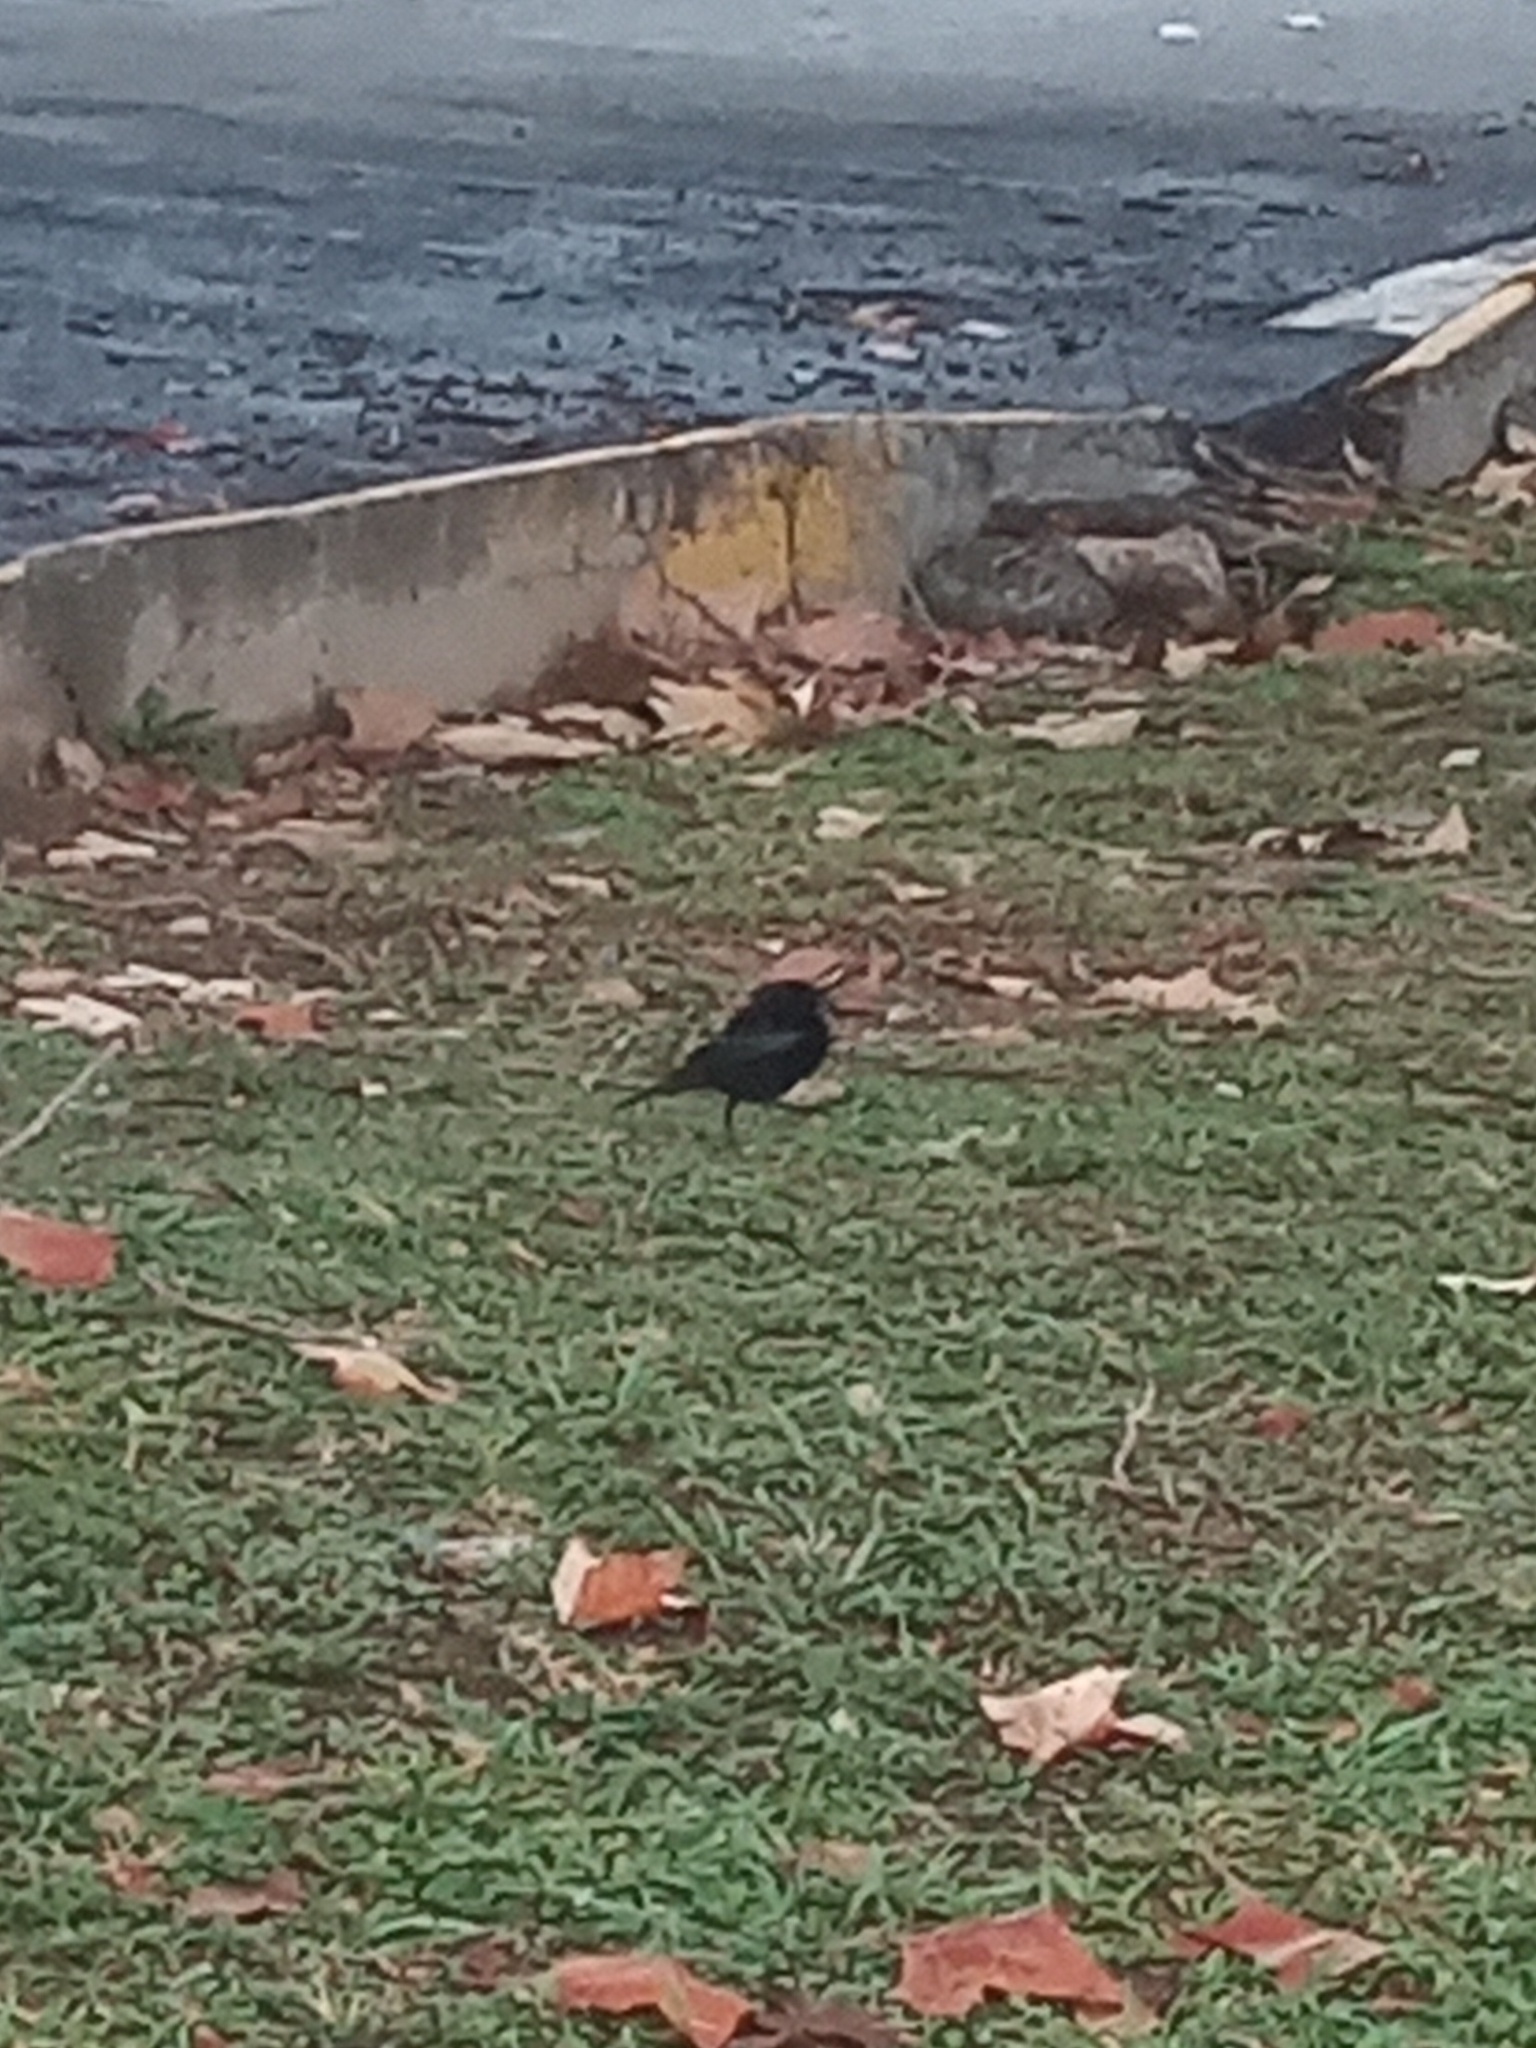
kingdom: Animalia
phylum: Chordata
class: Aves
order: Passeriformes
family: Icteridae
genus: Molothrus
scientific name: Molothrus aeneus
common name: Bronzed cowbird
